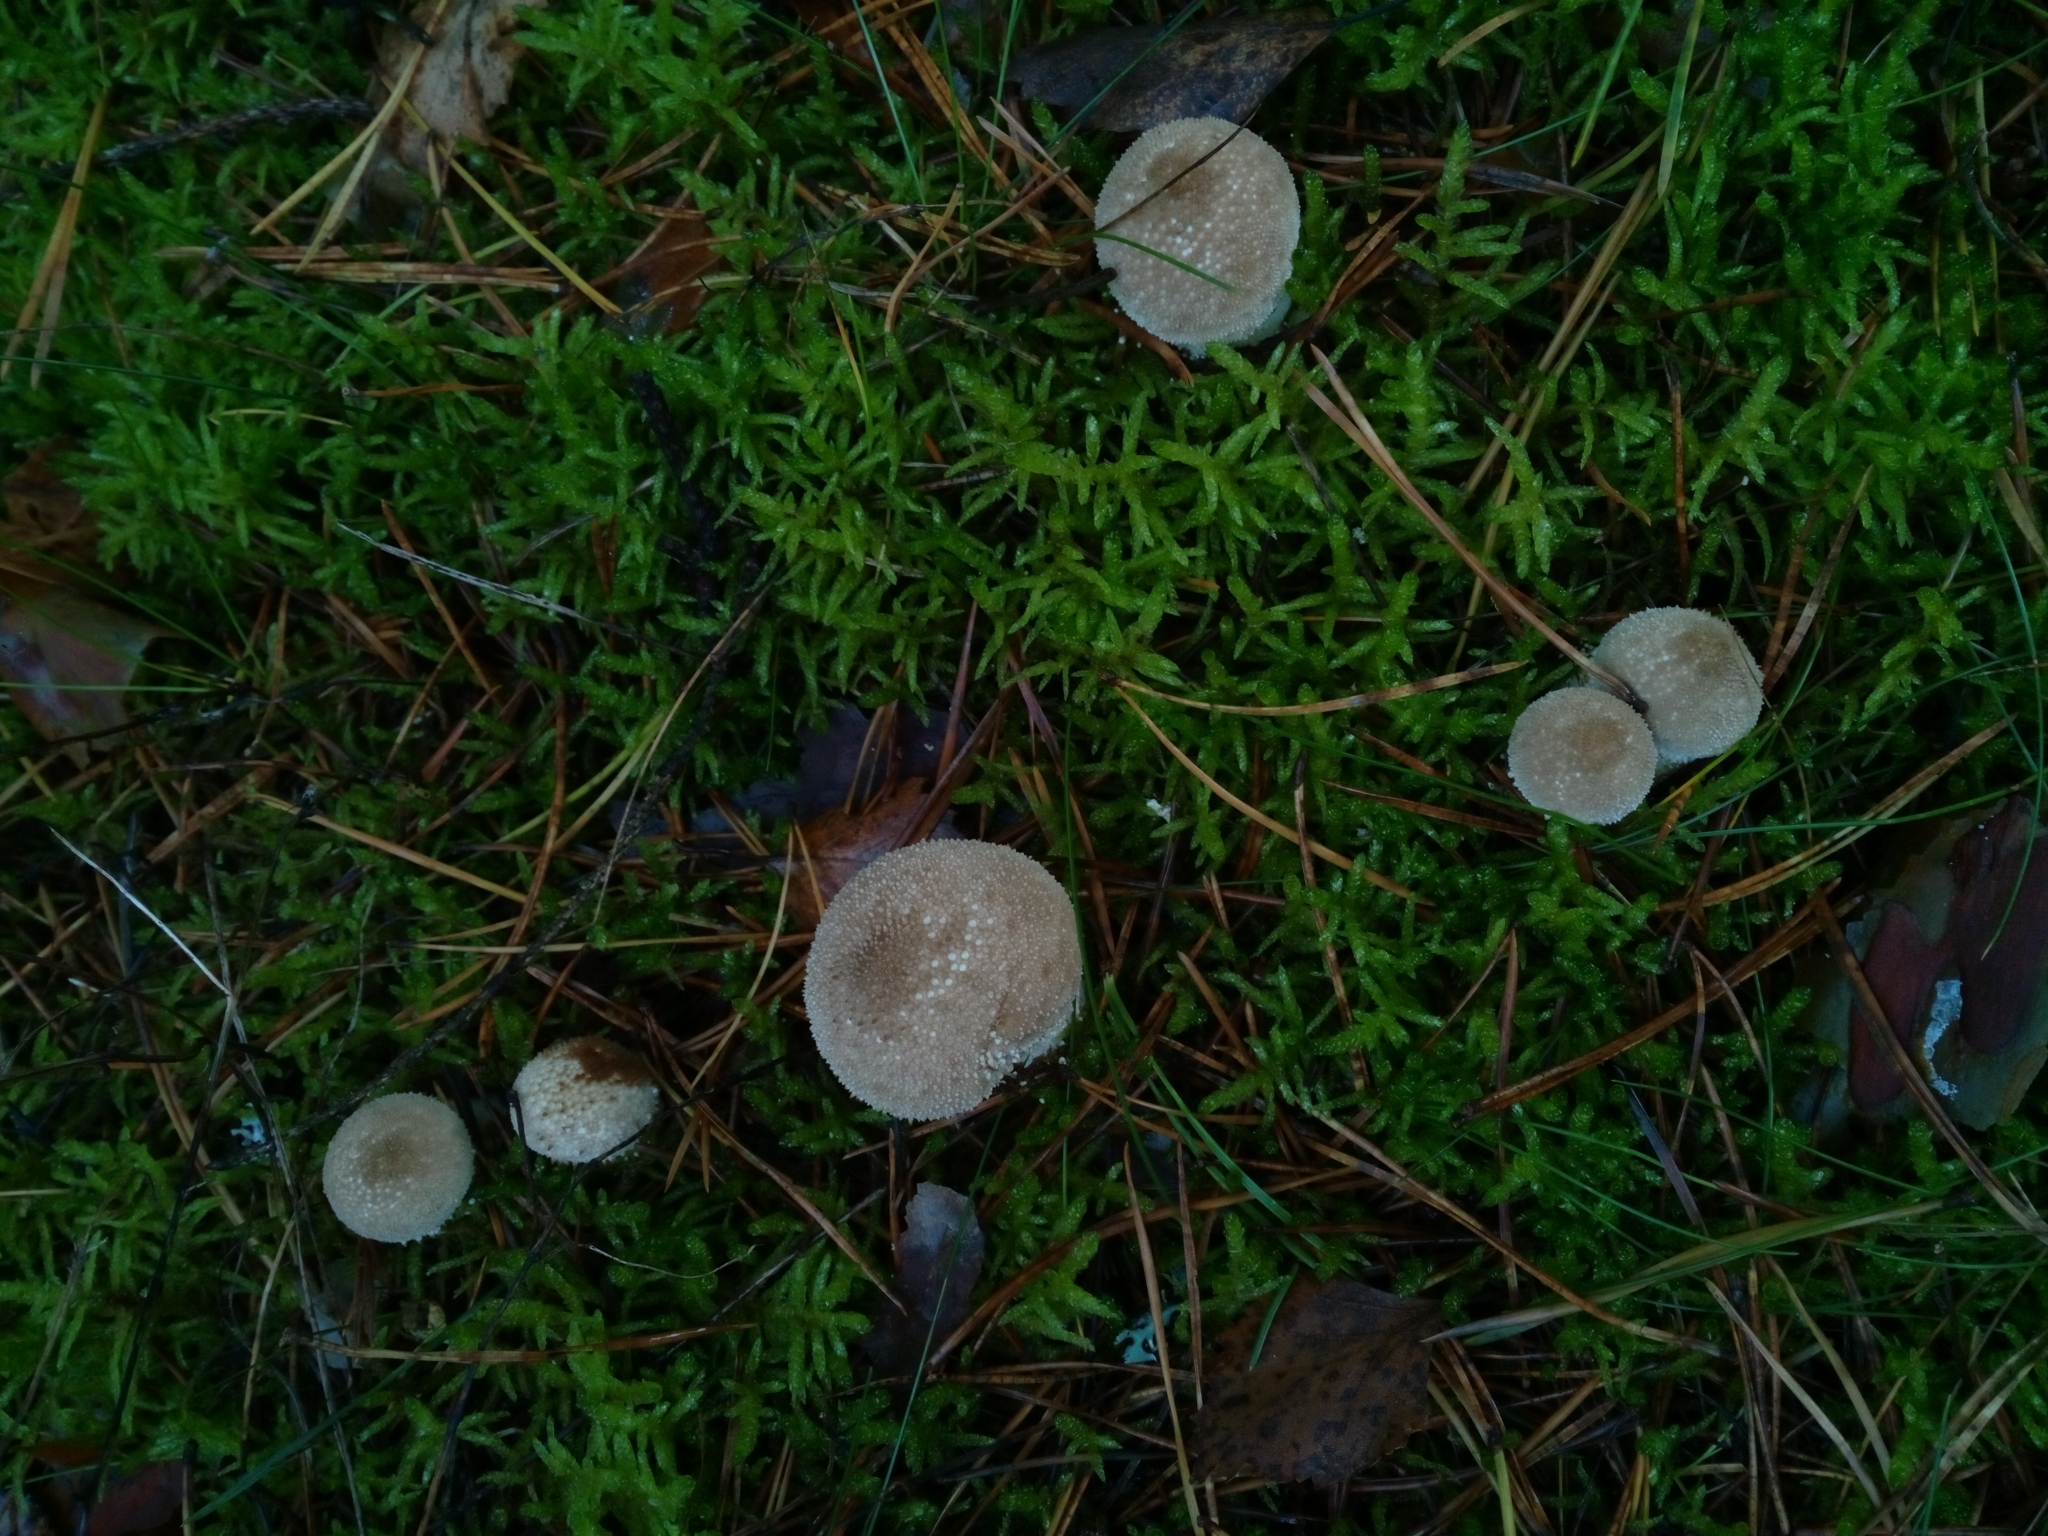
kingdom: Fungi
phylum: Basidiomycota
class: Agaricomycetes
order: Agaricales
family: Lycoperdaceae
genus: Lycoperdon
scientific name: Lycoperdon perlatum
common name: Common puffball
